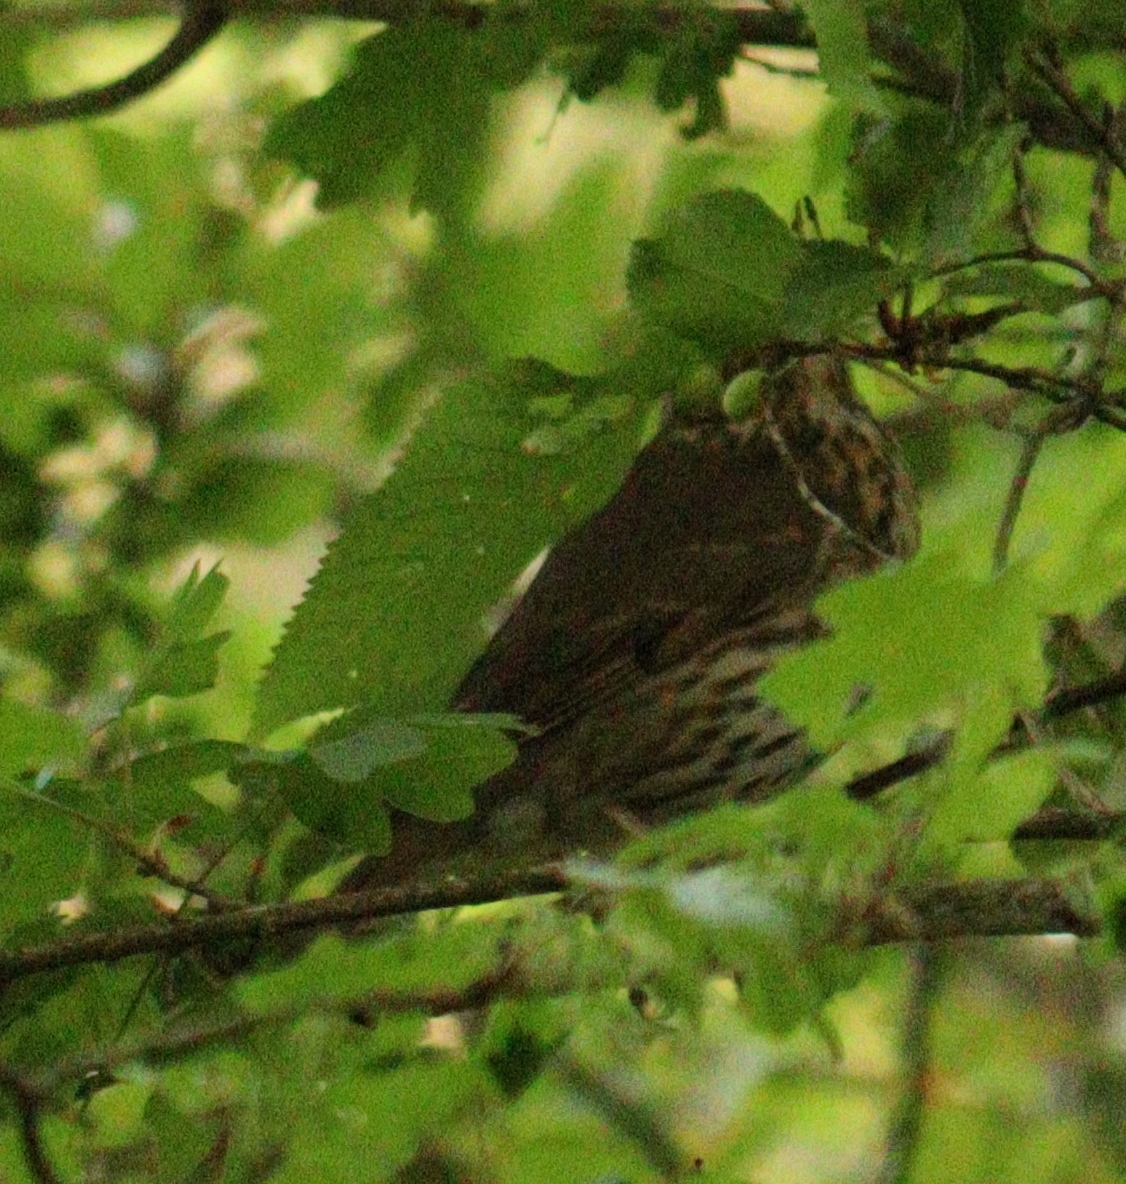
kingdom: Animalia
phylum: Chordata
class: Aves
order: Passeriformes
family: Turdidae
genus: Turdus
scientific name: Turdus philomelos
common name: Song thrush
